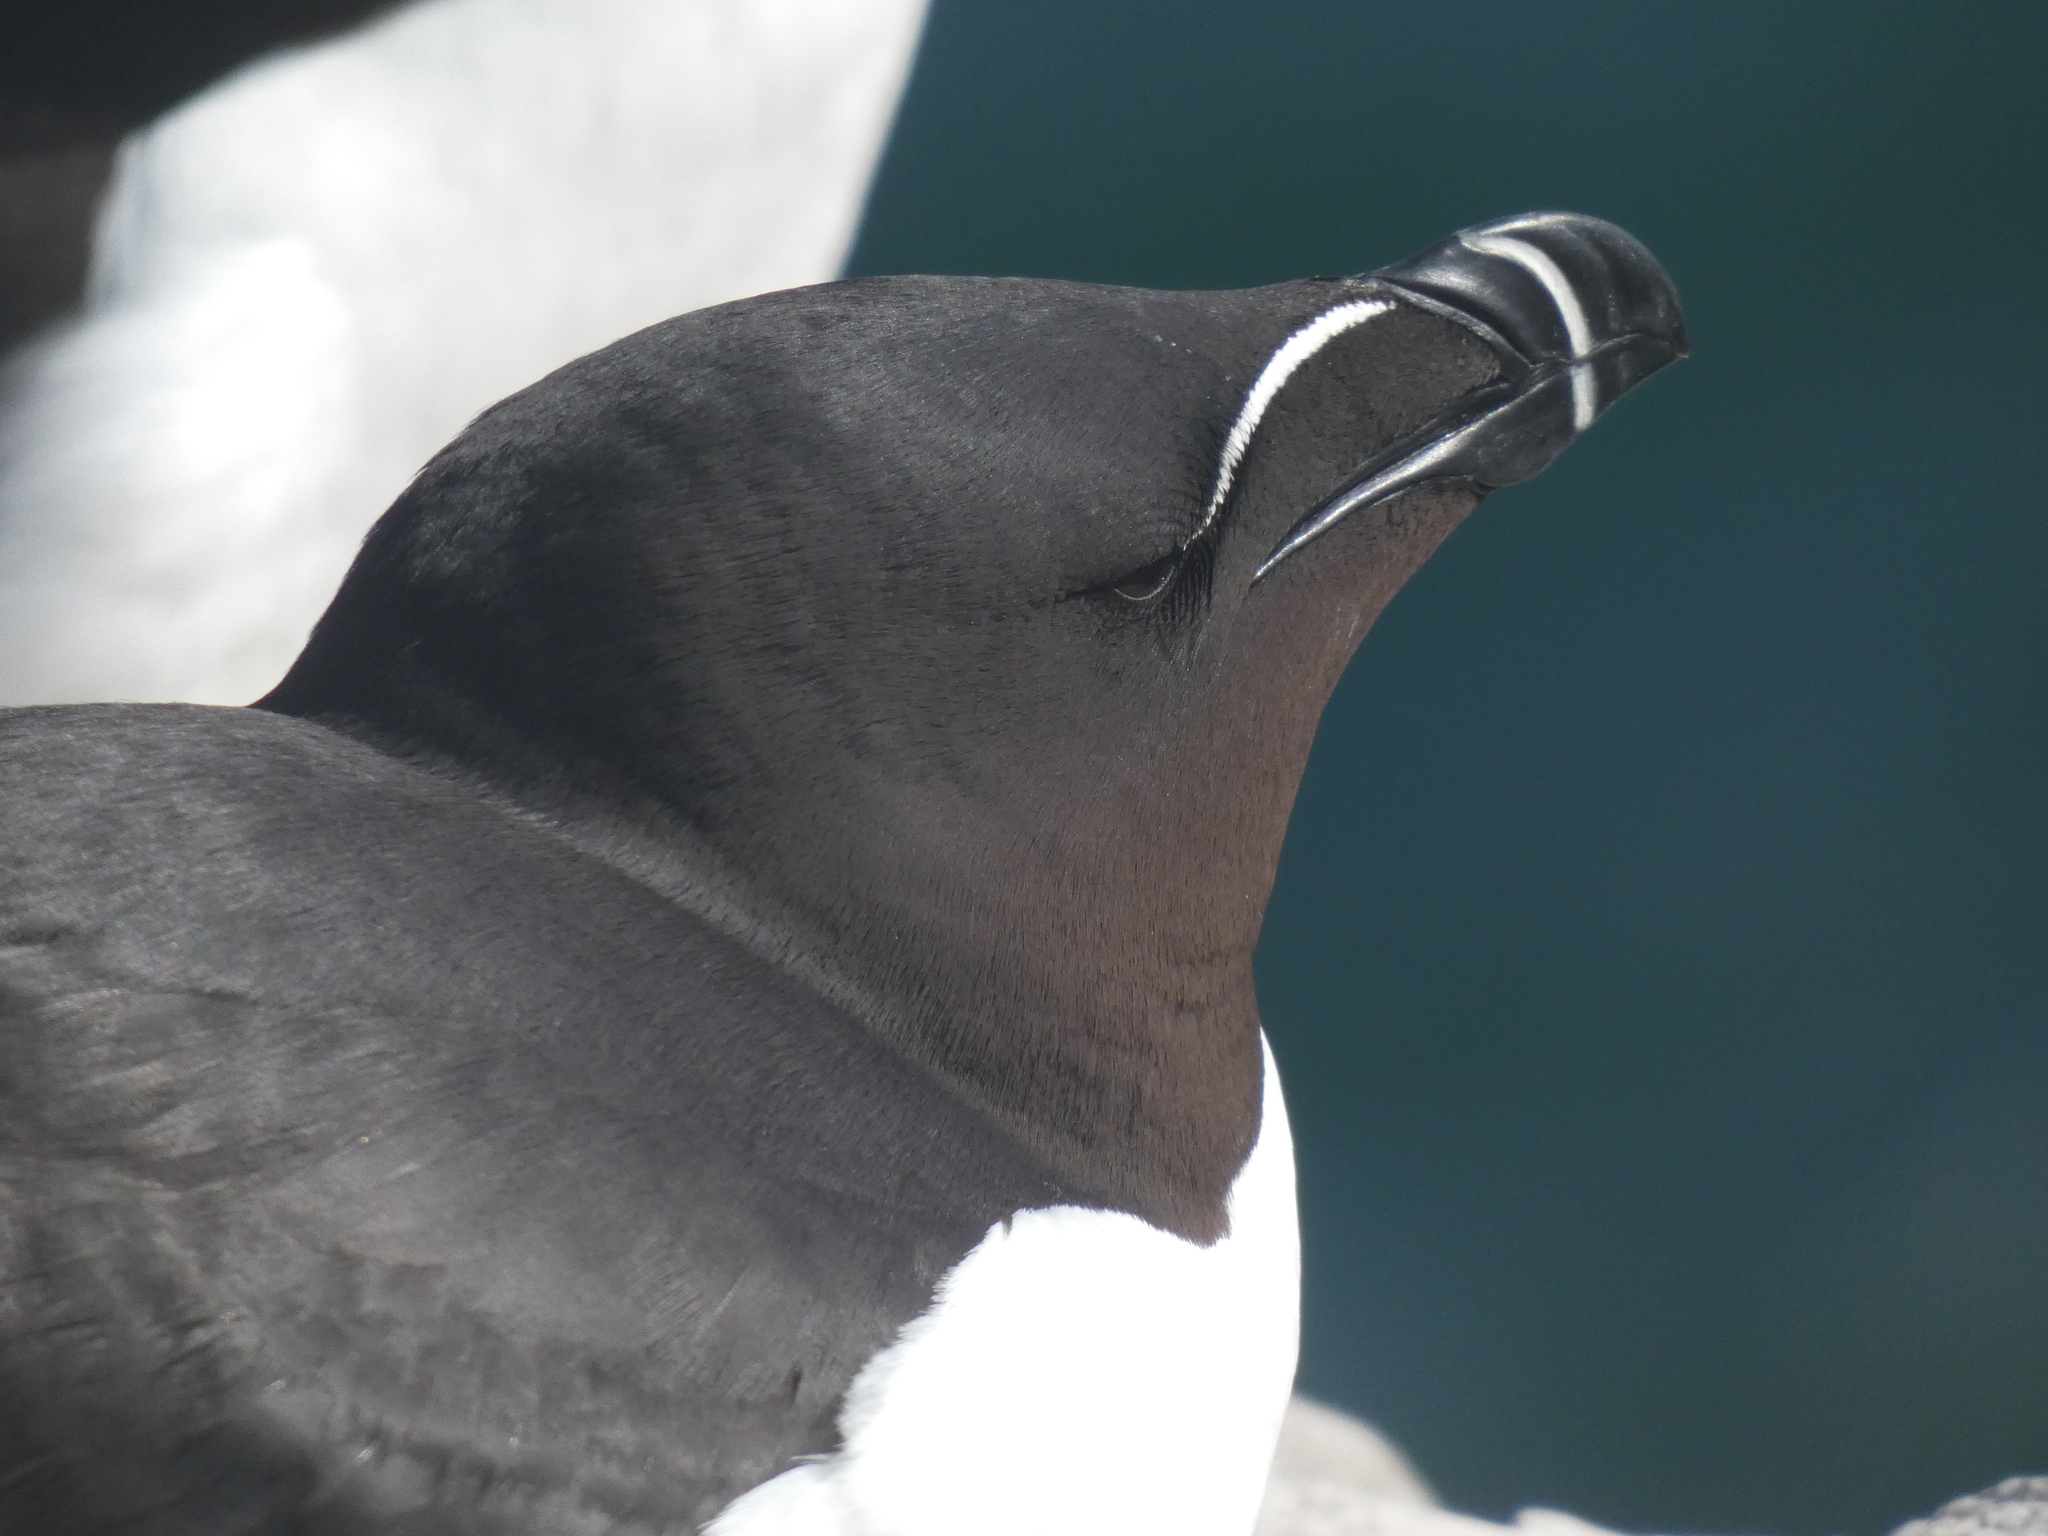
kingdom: Animalia
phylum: Chordata
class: Aves
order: Charadriiformes
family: Alcidae
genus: Alca
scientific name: Alca torda
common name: Razorbill
